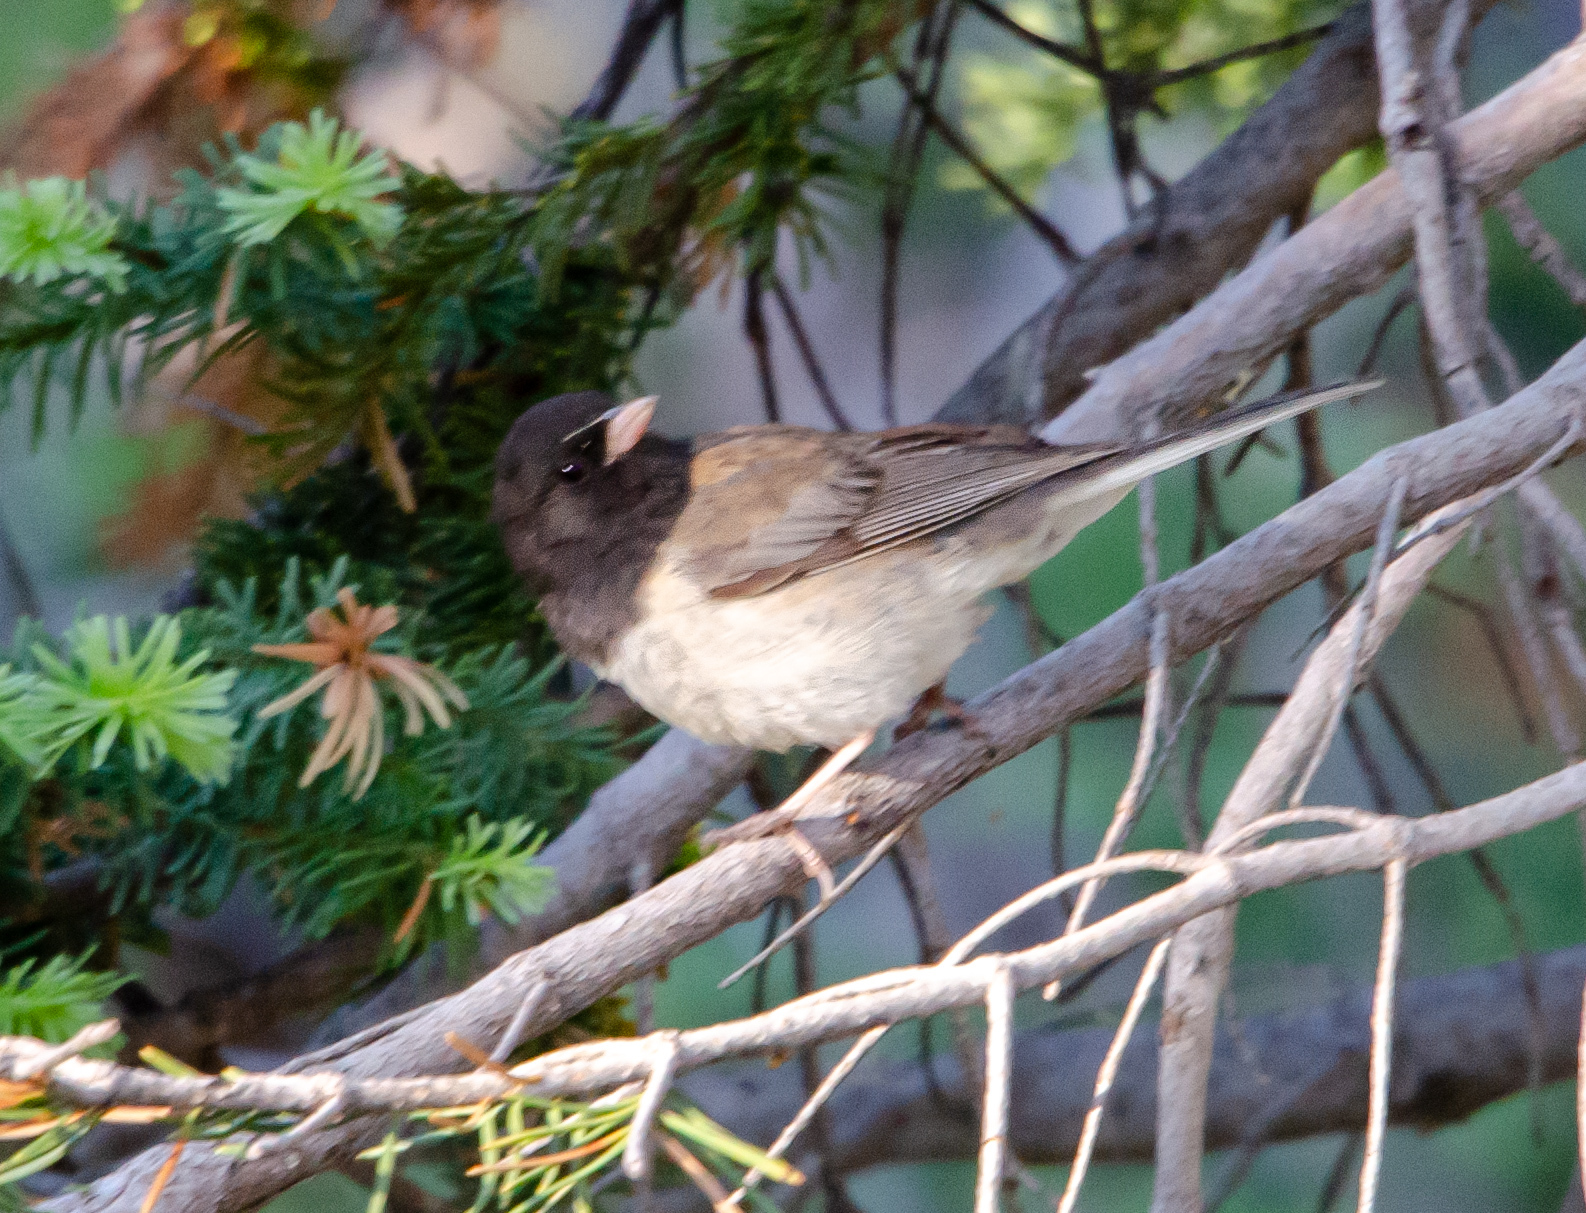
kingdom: Animalia
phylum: Chordata
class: Aves
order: Passeriformes
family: Passerellidae
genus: Junco
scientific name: Junco hyemalis
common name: Dark-eyed junco
